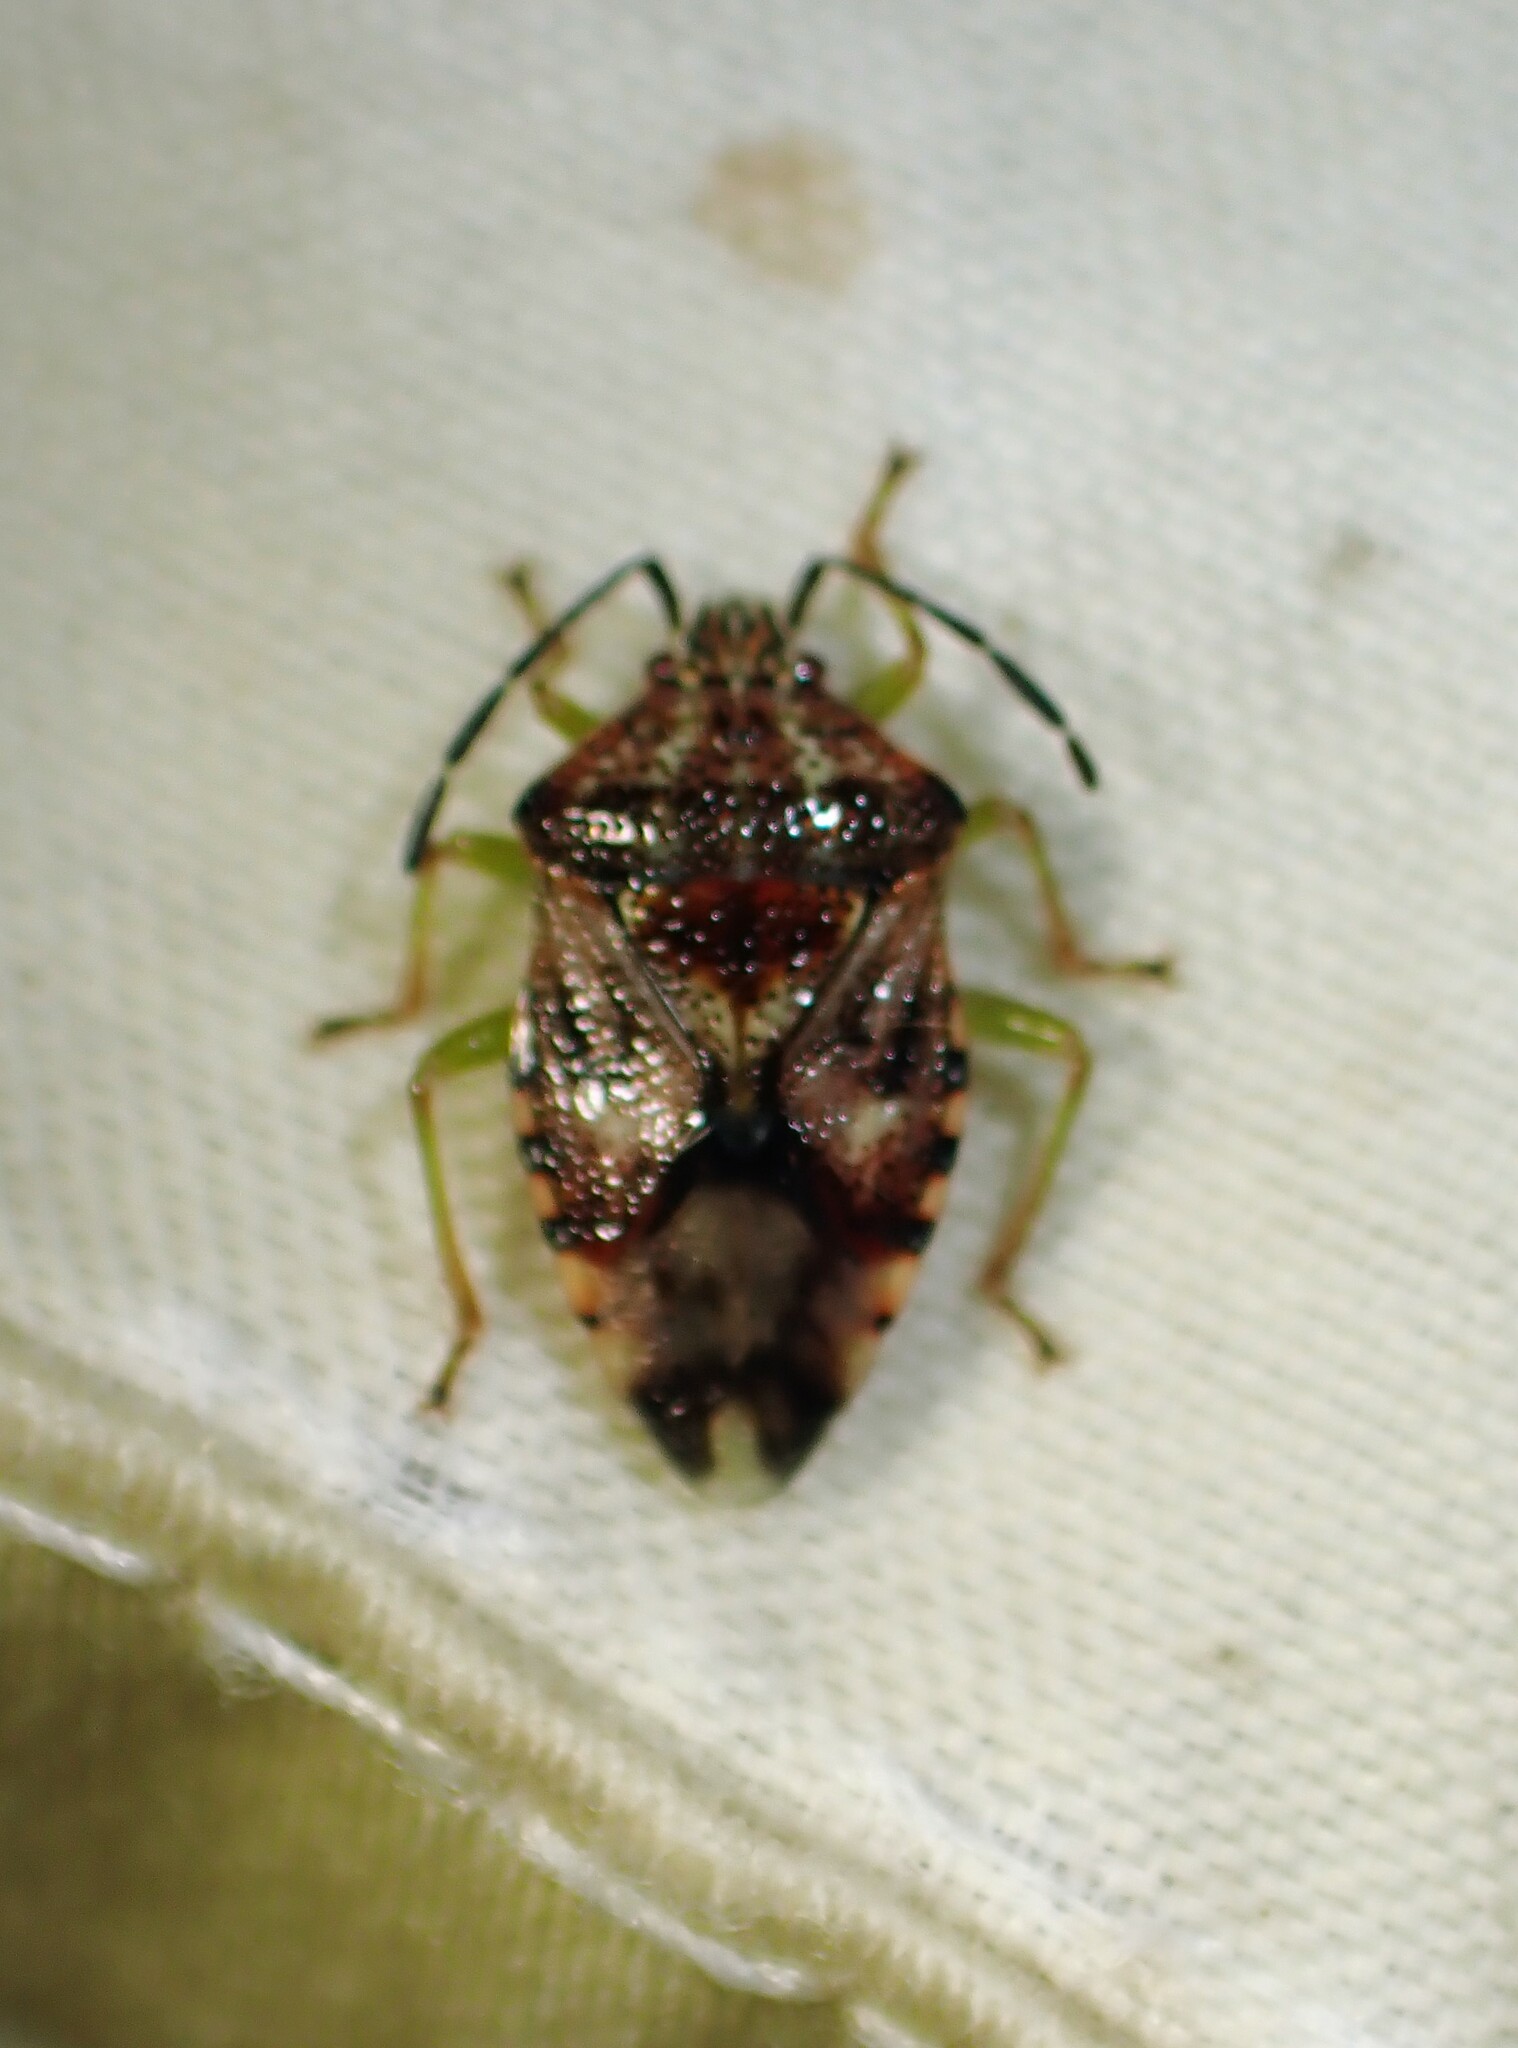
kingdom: Animalia
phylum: Arthropoda
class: Insecta
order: Hemiptera
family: Acanthosomatidae
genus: Elasmucha
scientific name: Elasmucha lateralis
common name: Shield bug
